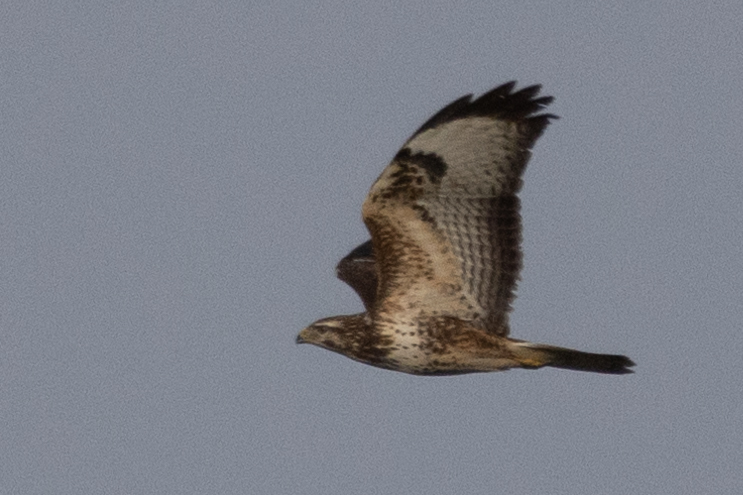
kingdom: Animalia
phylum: Chordata
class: Aves
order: Accipitriformes
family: Accipitridae
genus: Buteo
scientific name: Buteo buteo
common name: Common buzzard
